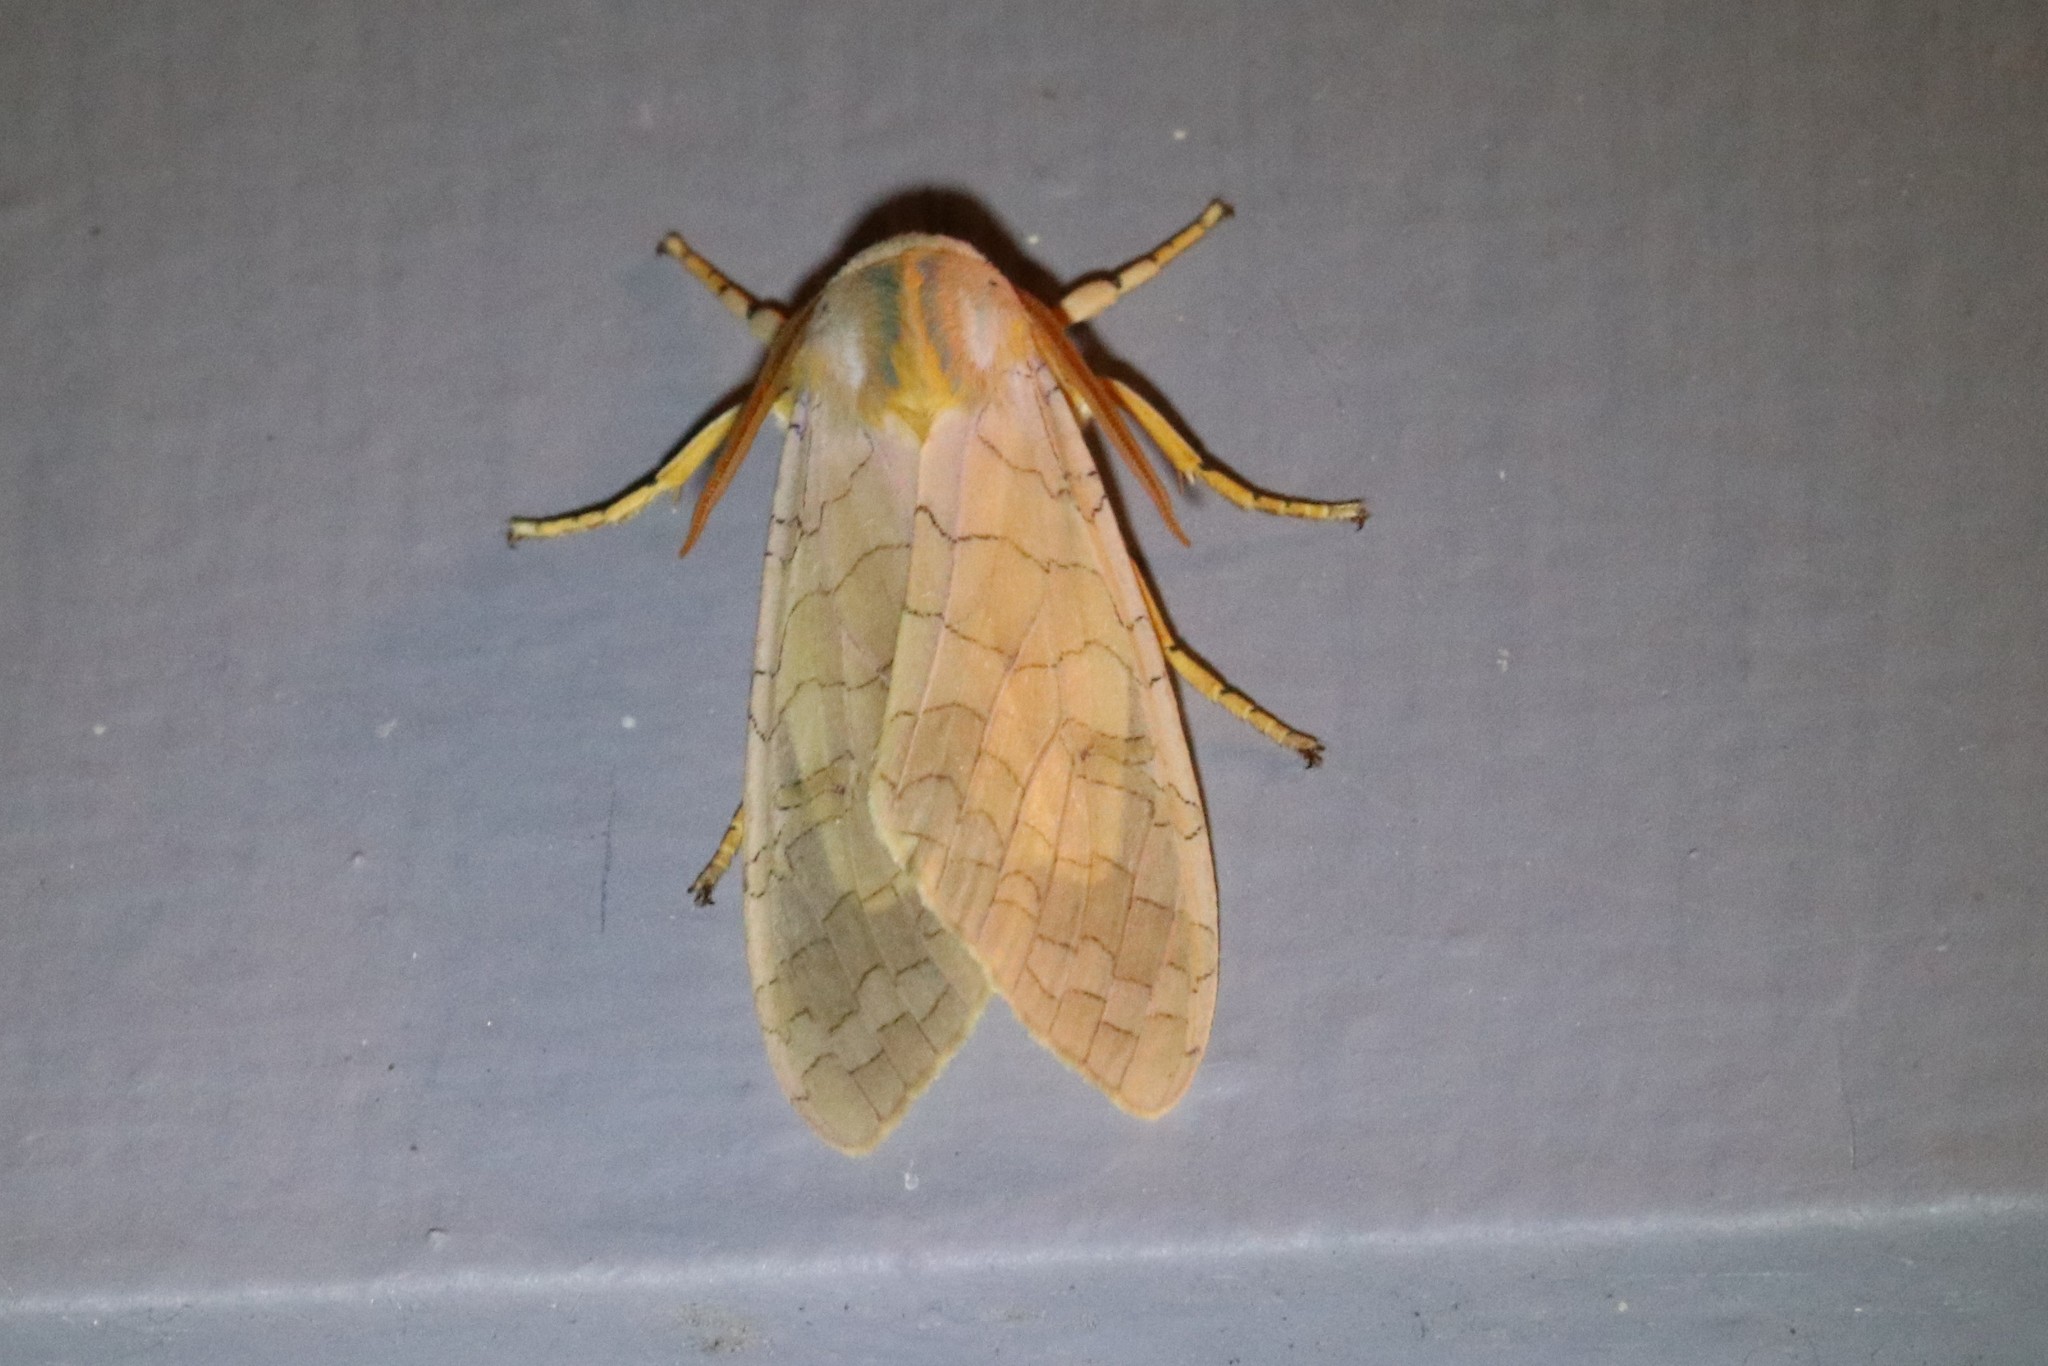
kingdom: Animalia
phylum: Arthropoda
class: Insecta
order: Lepidoptera
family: Erebidae
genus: Halysidota
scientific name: Halysidota tessellaris
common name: Banded tussock moth
